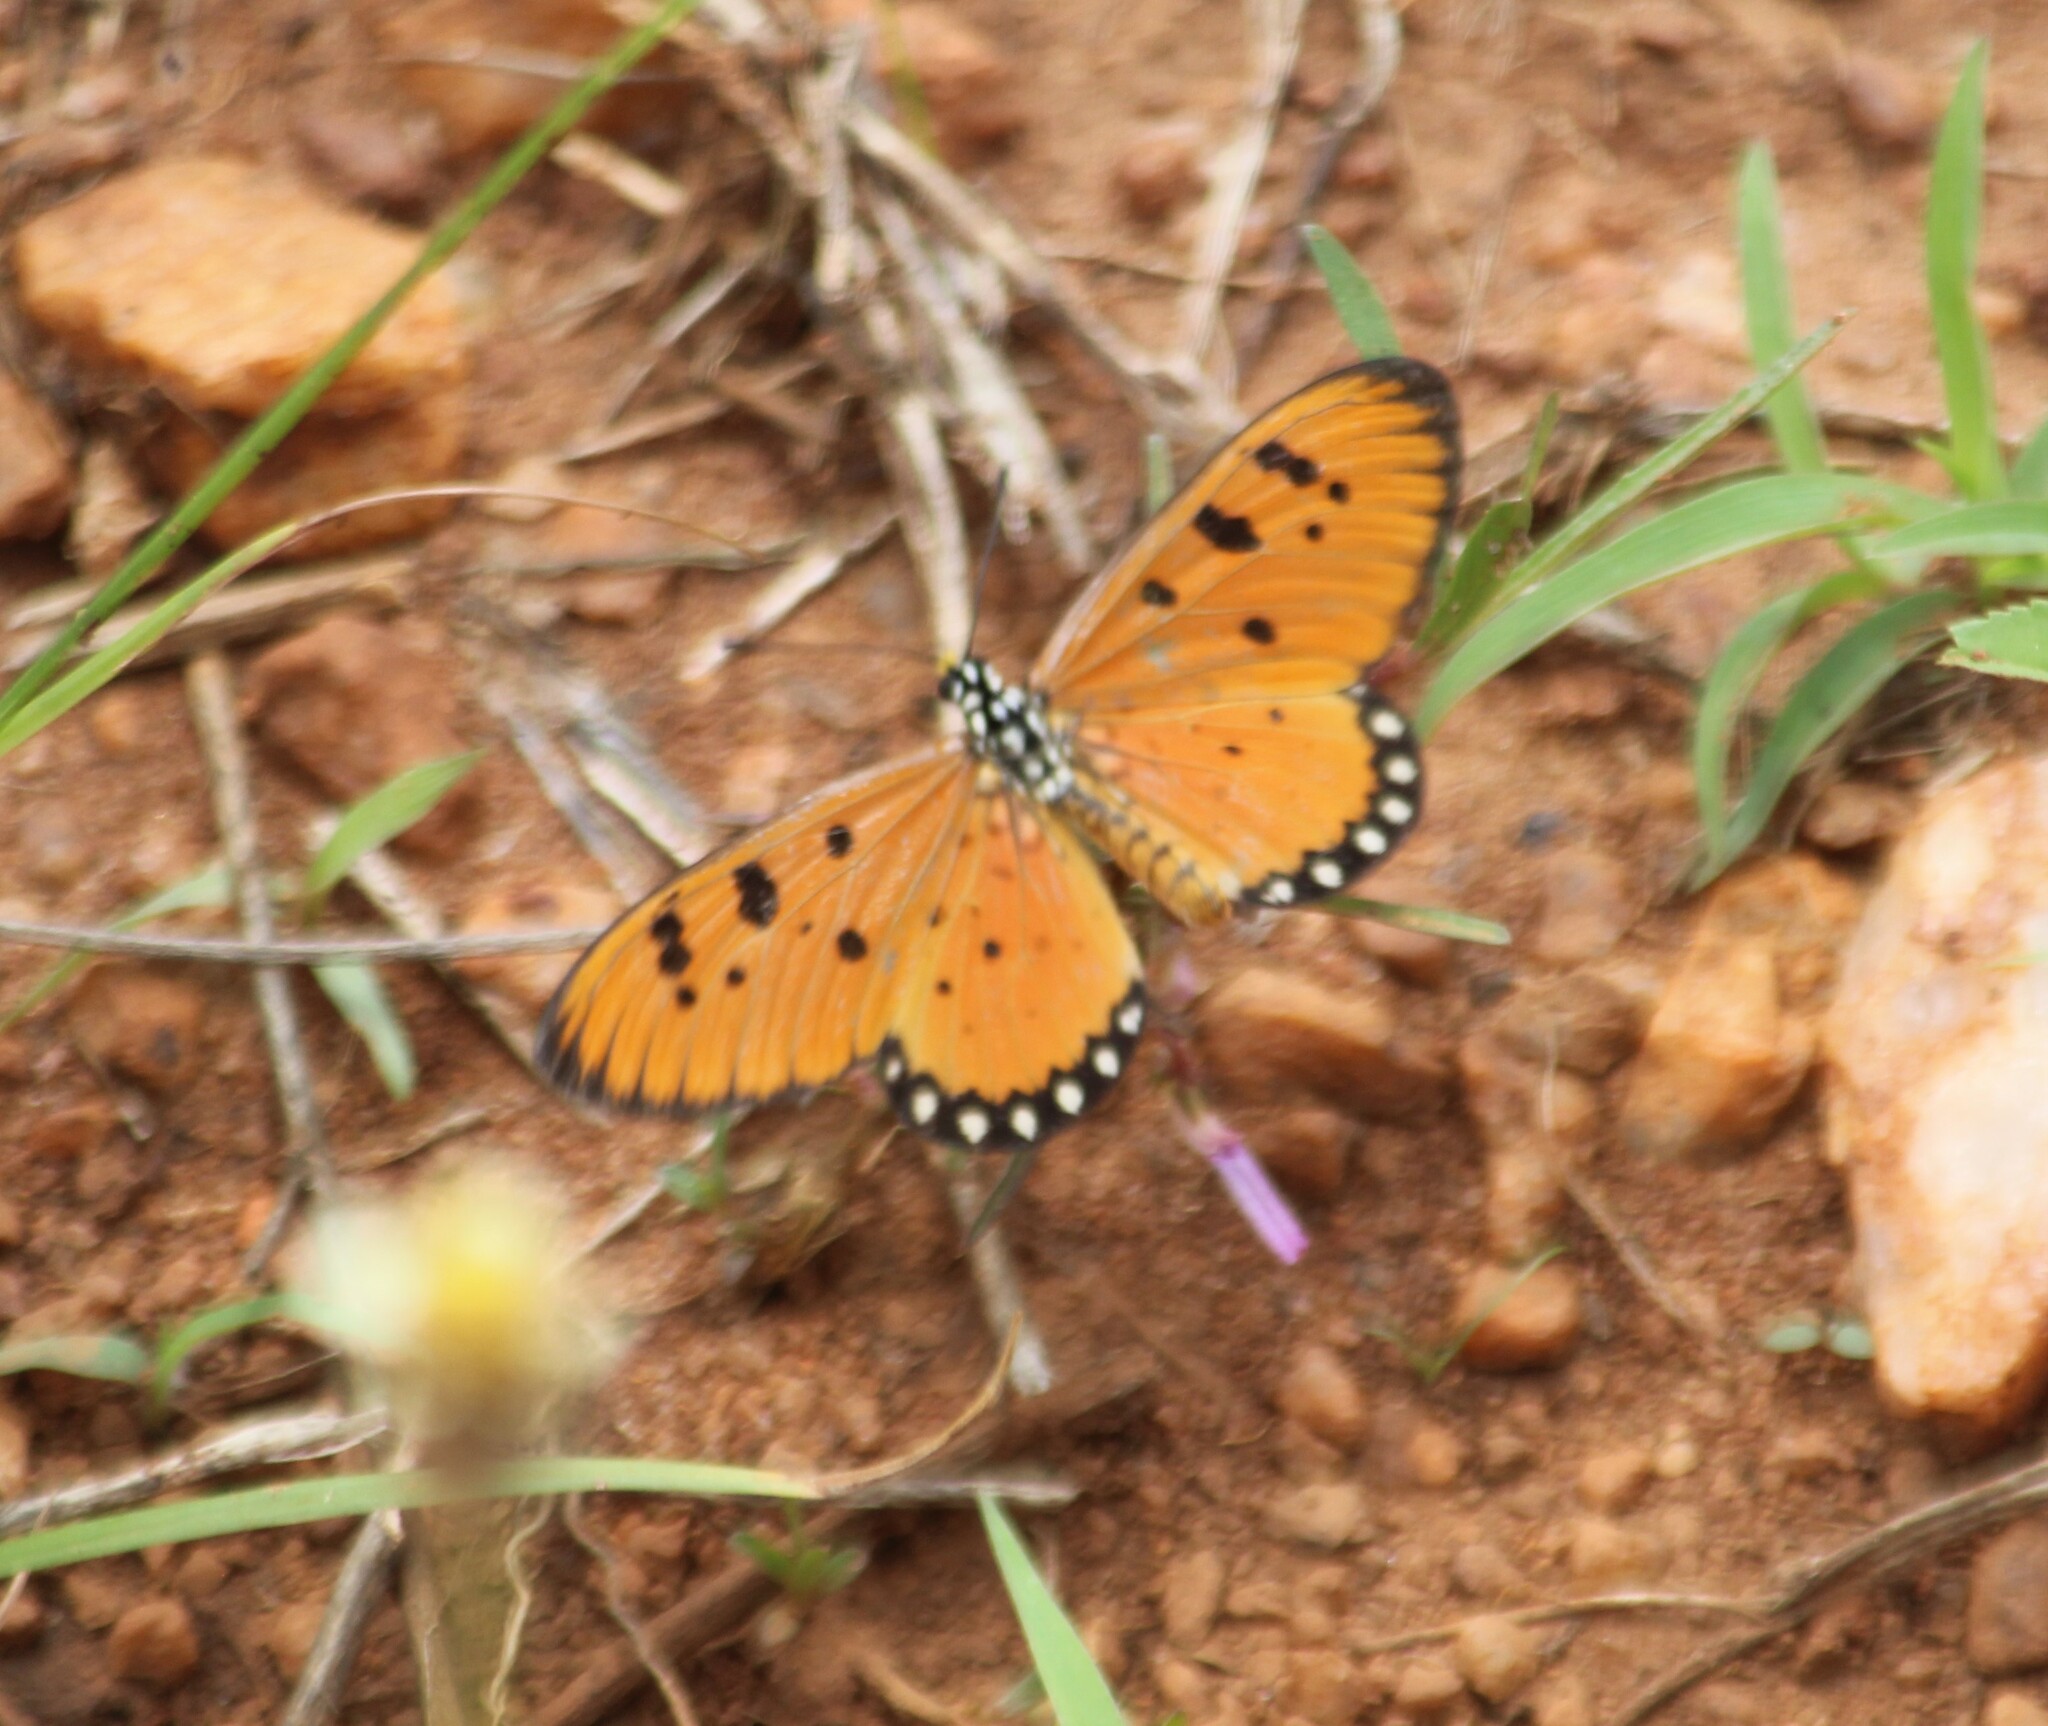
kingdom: Animalia
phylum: Arthropoda
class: Insecta
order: Lepidoptera
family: Nymphalidae
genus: Acraea
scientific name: Acraea terpsicore
